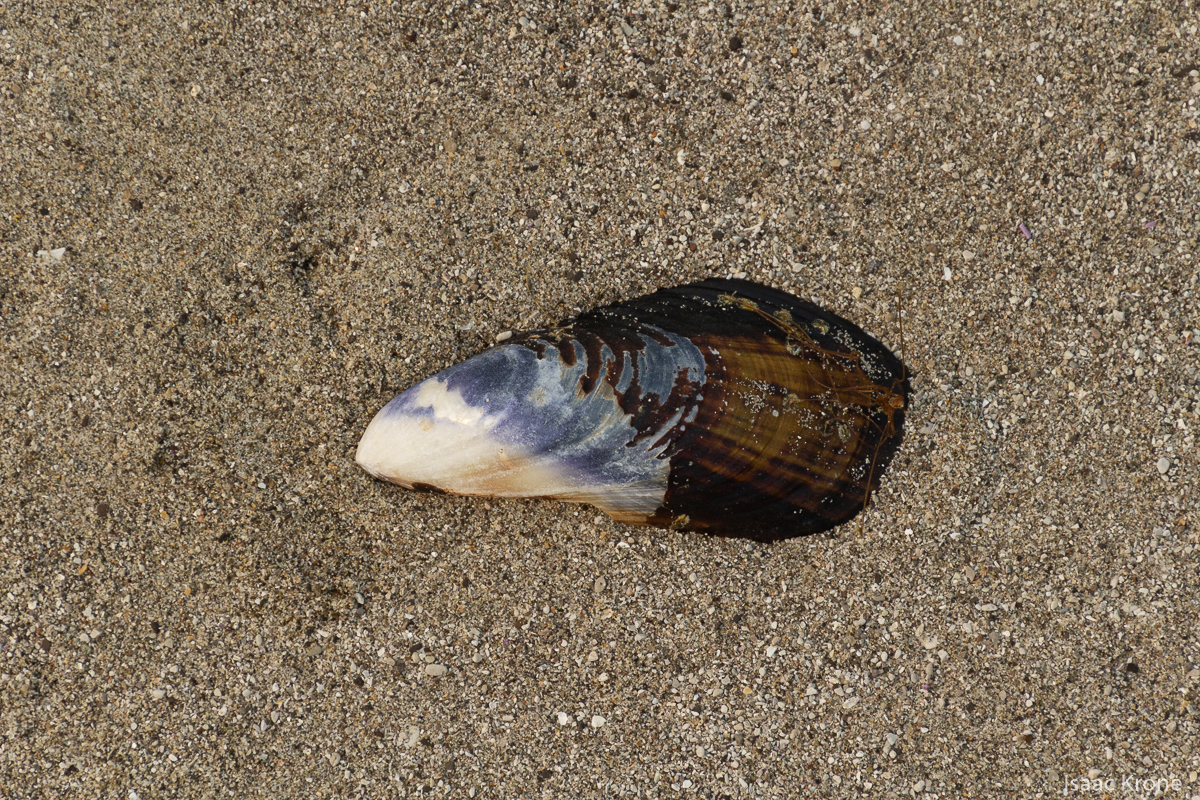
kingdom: Animalia
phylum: Mollusca
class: Bivalvia
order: Mytilida
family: Mytilidae
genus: Mytilus
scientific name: Mytilus californianus
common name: California mussel
